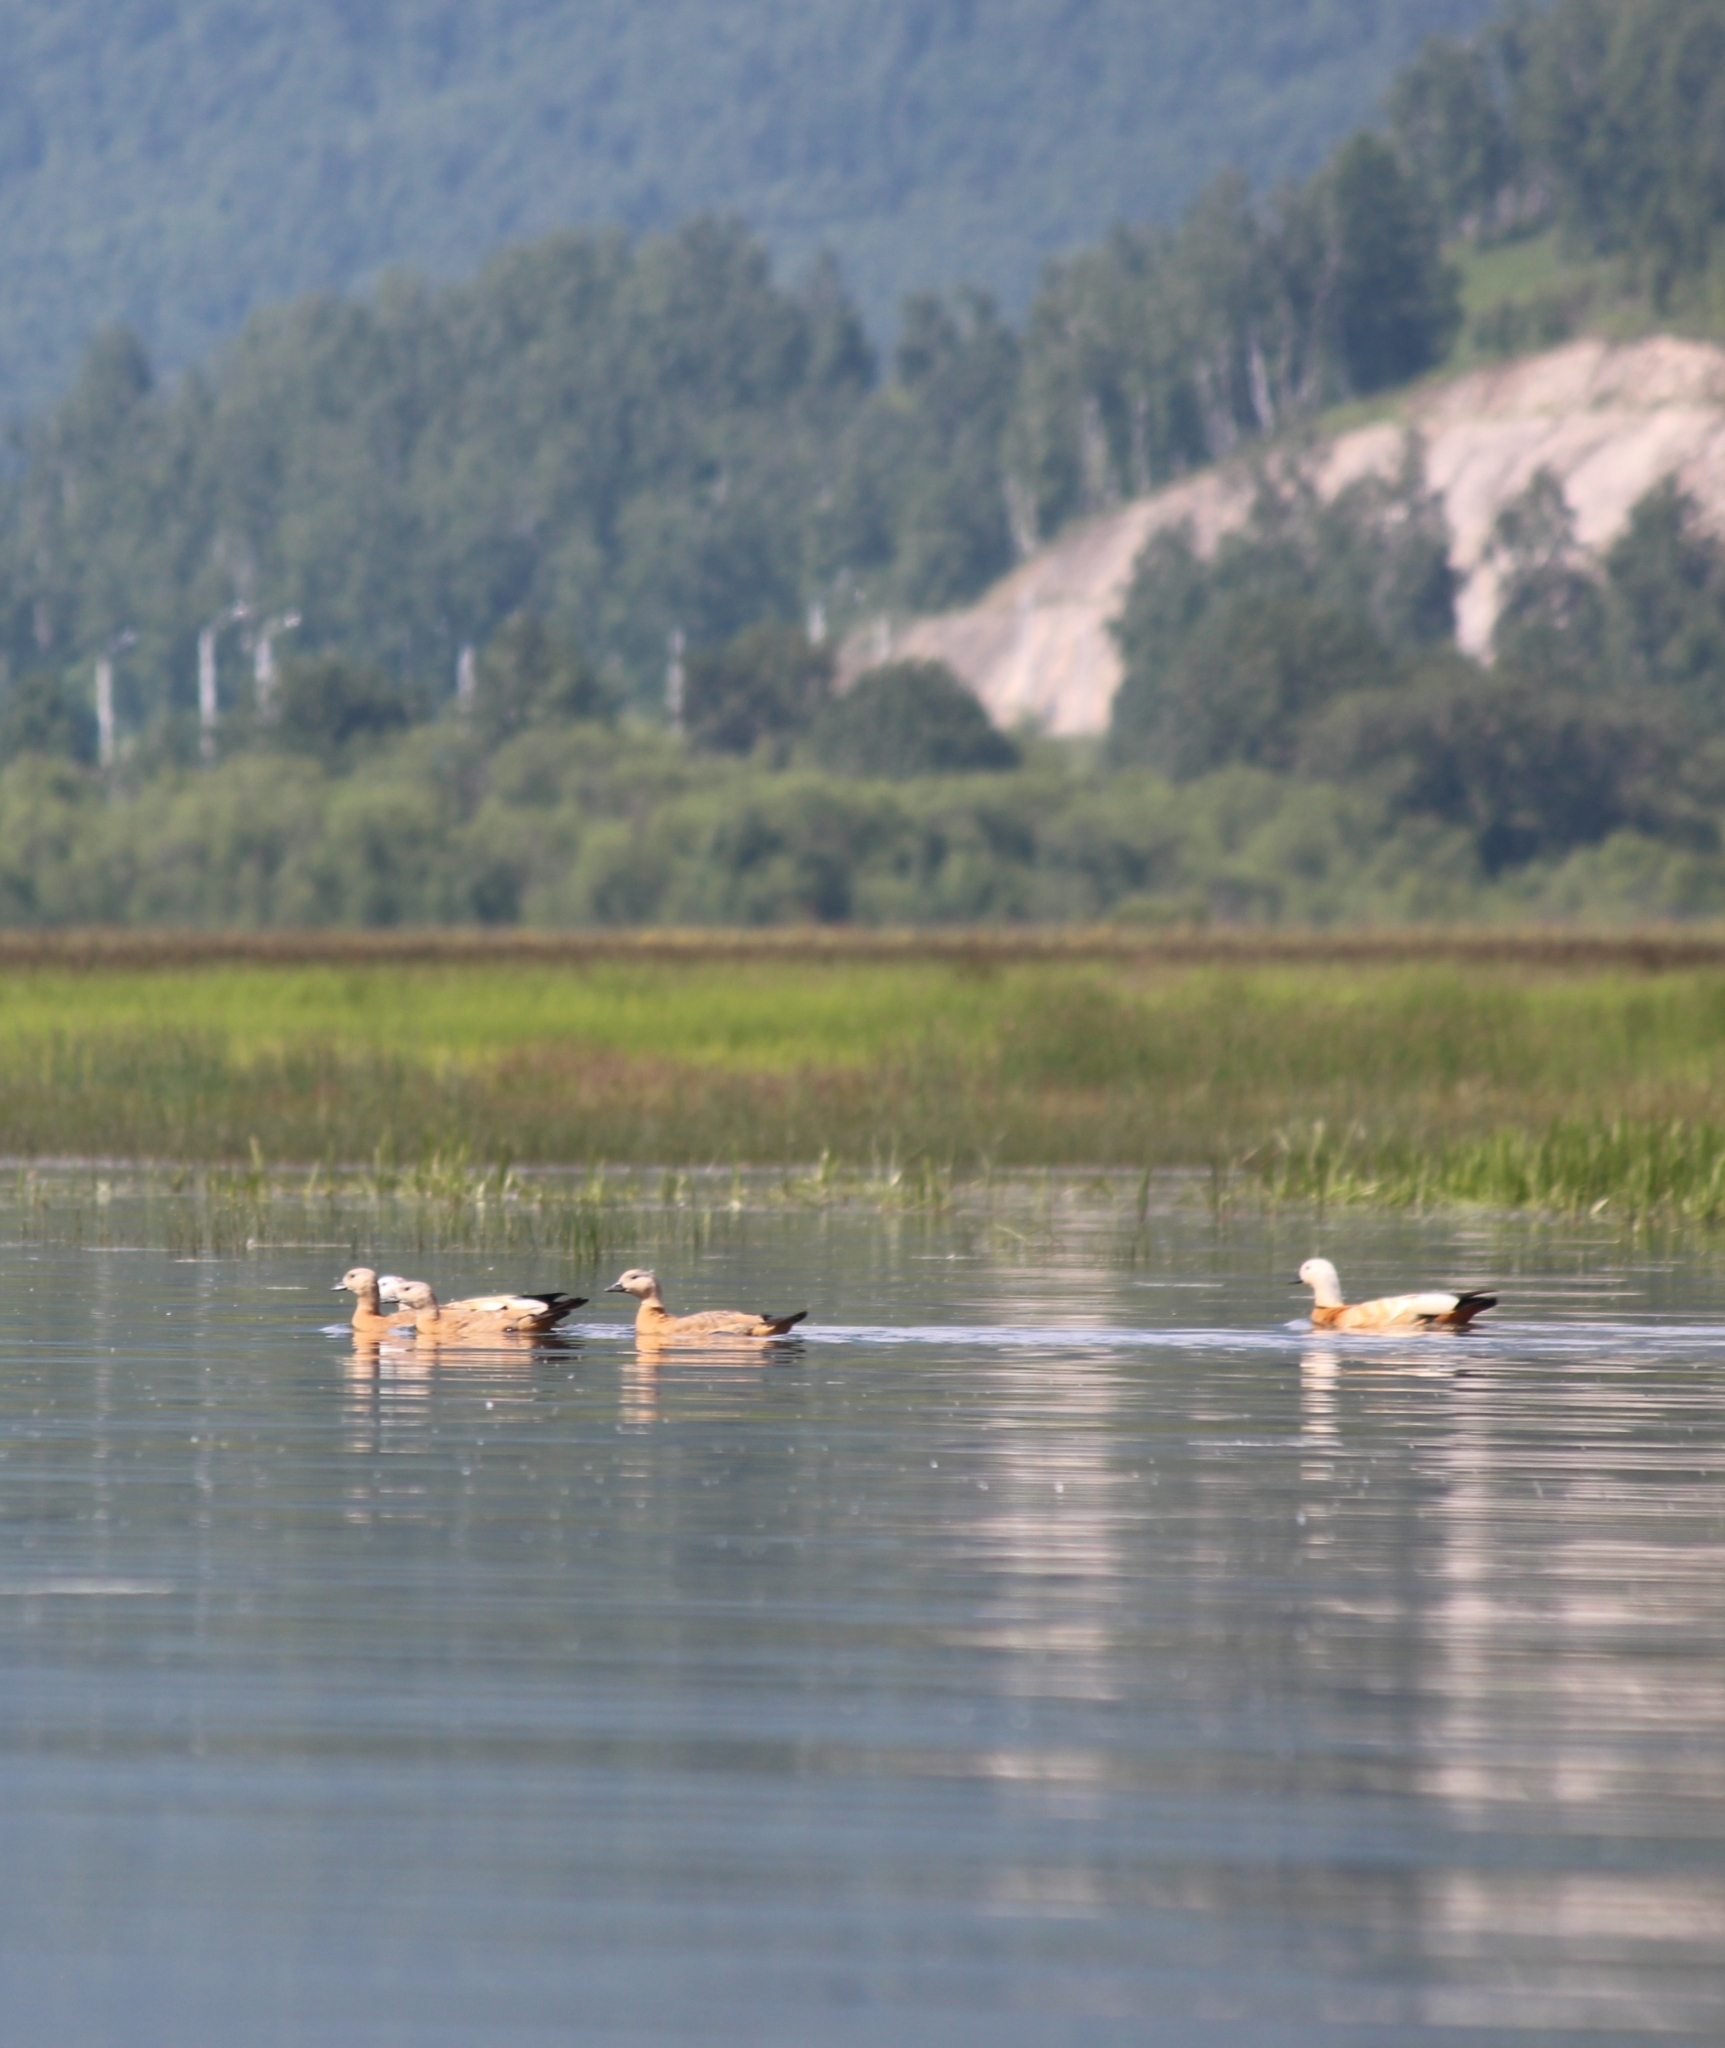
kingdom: Animalia
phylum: Chordata
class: Aves
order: Anseriformes
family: Anatidae
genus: Tadorna
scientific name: Tadorna ferruginea
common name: Ruddy shelduck
